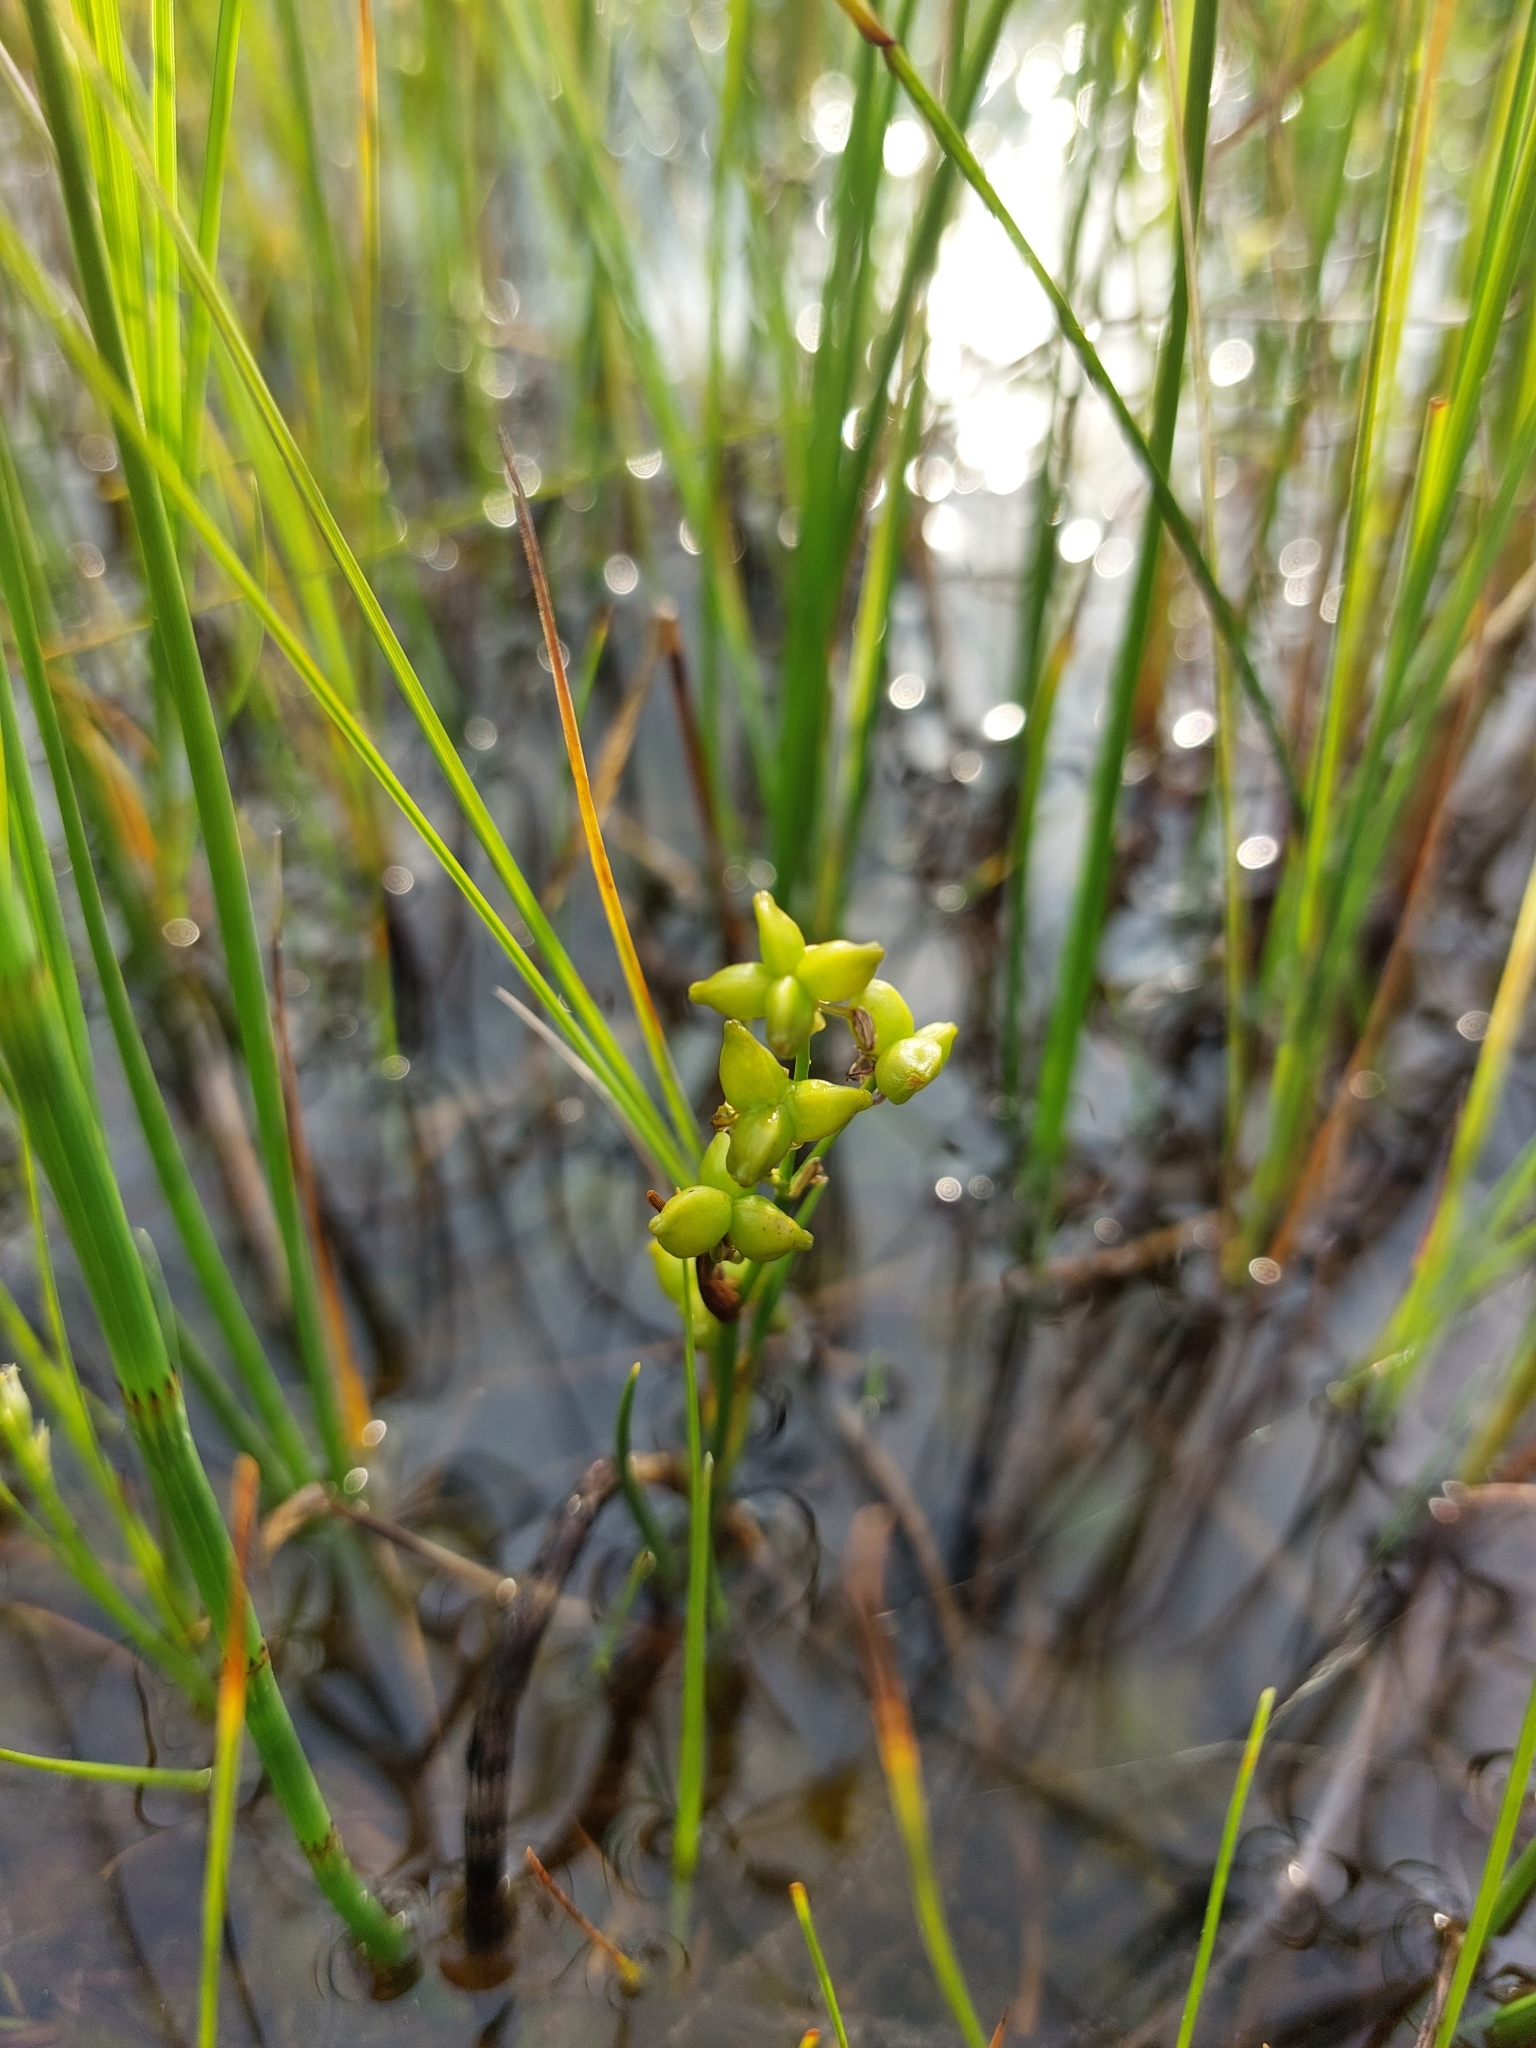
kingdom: Plantae
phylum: Tracheophyta
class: Liliopsida
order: Alismatales
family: Scheuchzeriaceae
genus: Scheuchzeria
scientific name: Scheuchzeria palustris
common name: Rannoch-rush
